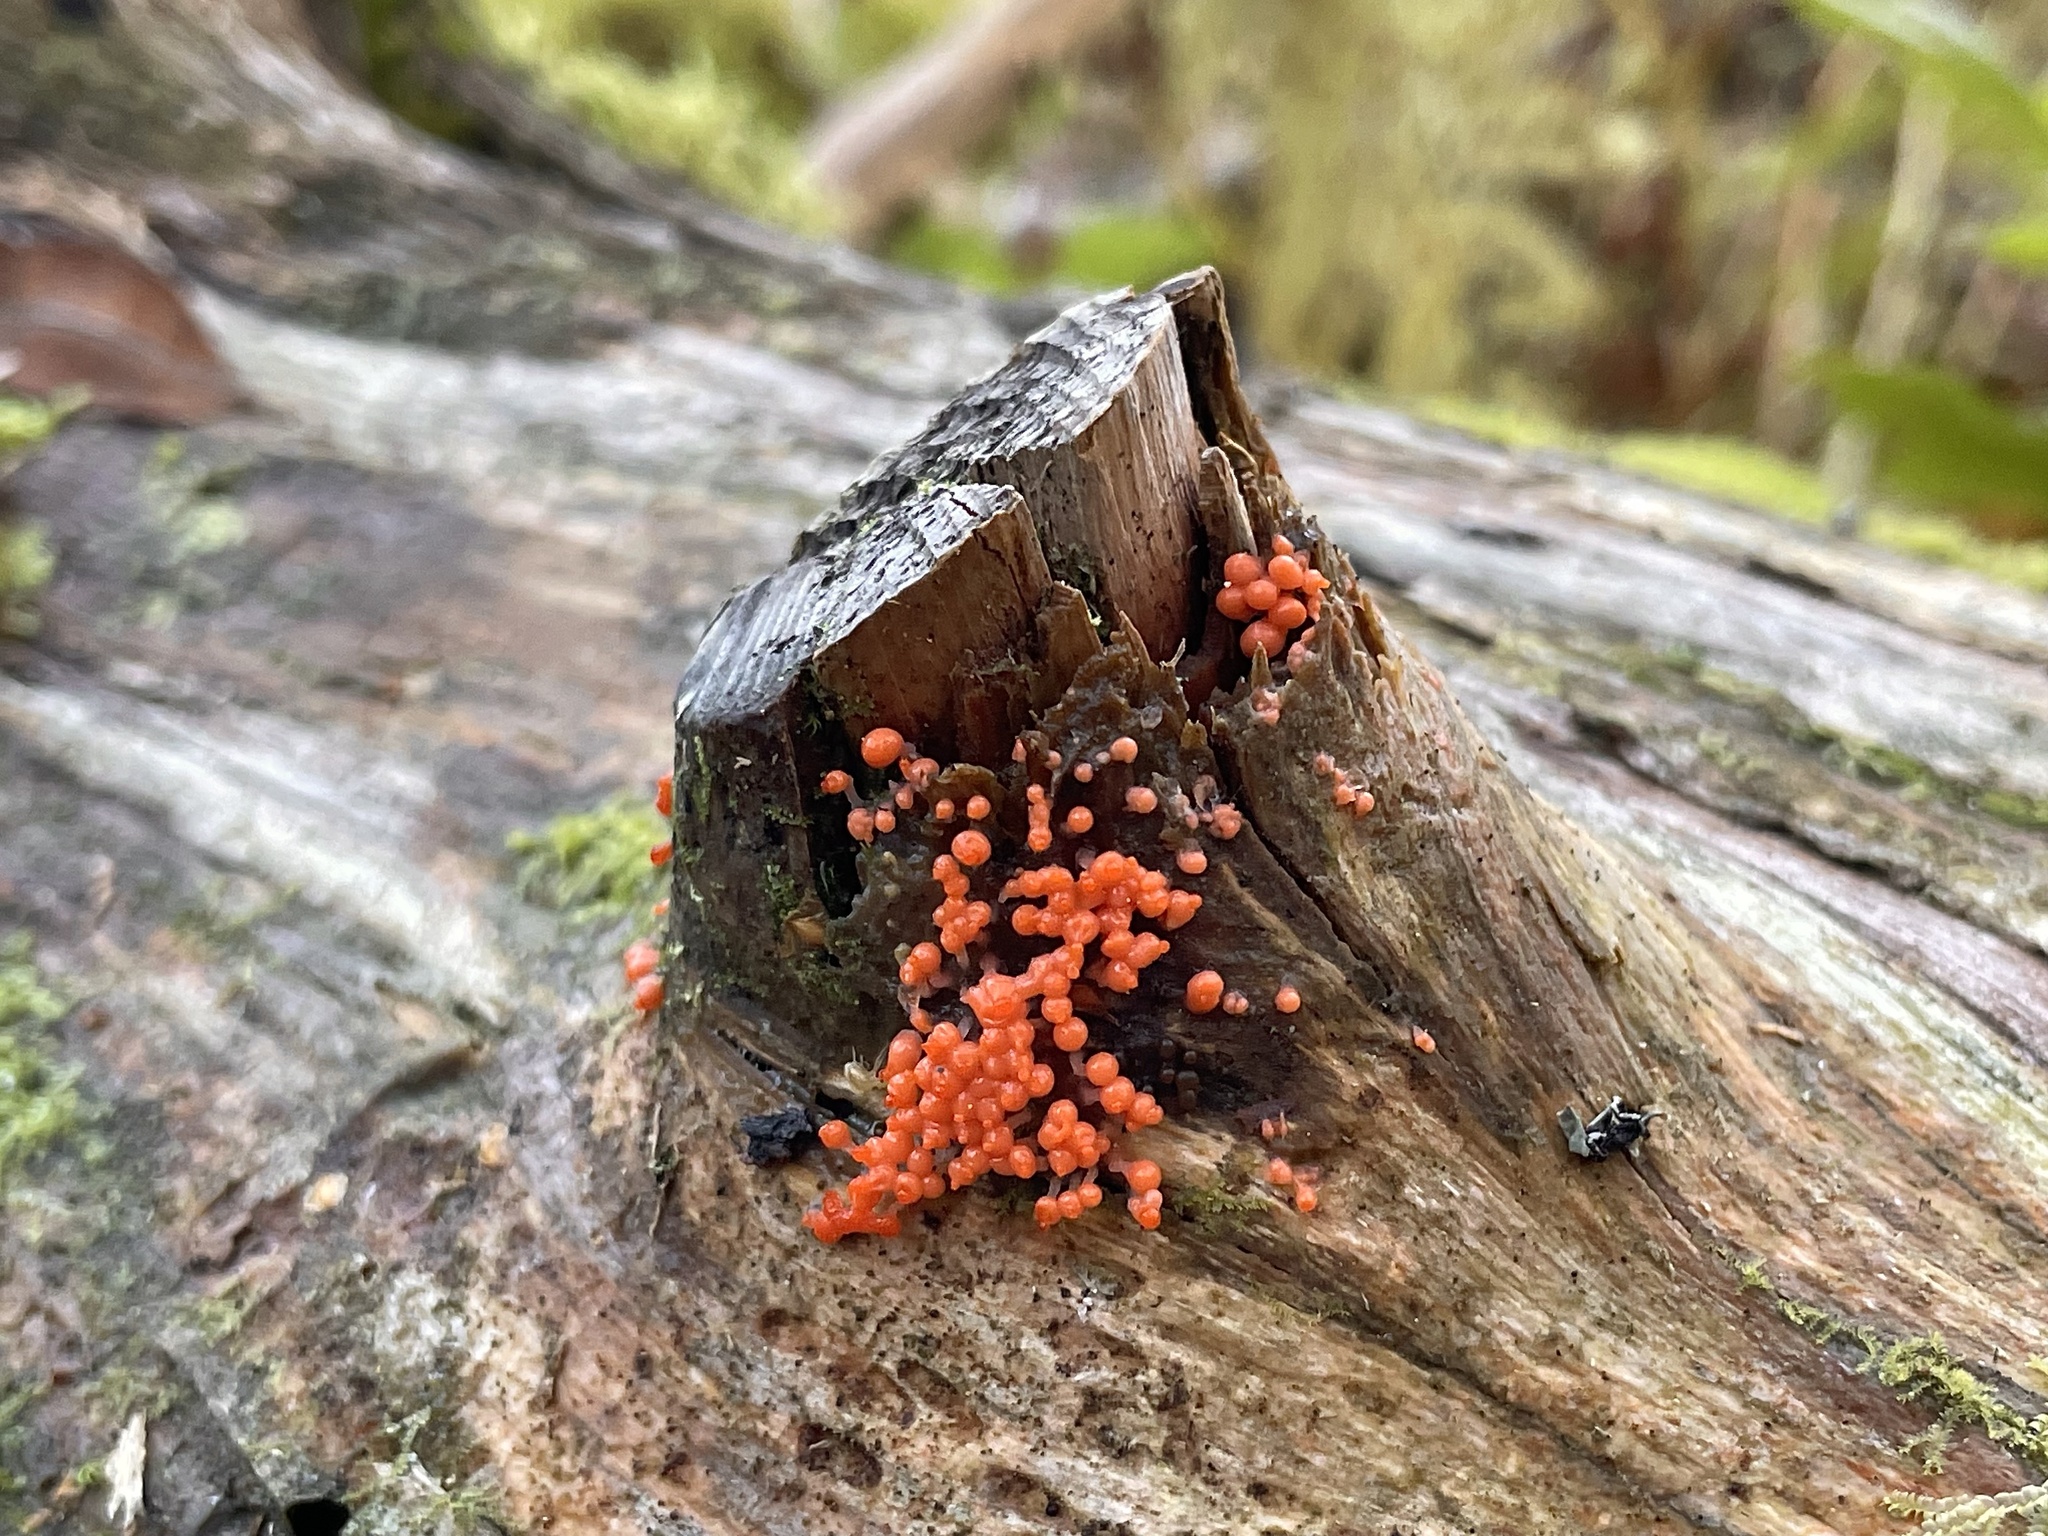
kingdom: Protozoa
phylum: Mycetozoa
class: Myxomycetes
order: Trichiales
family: Arcyriaceae
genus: Hemitrichia
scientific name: Hemitrichia decipiens
